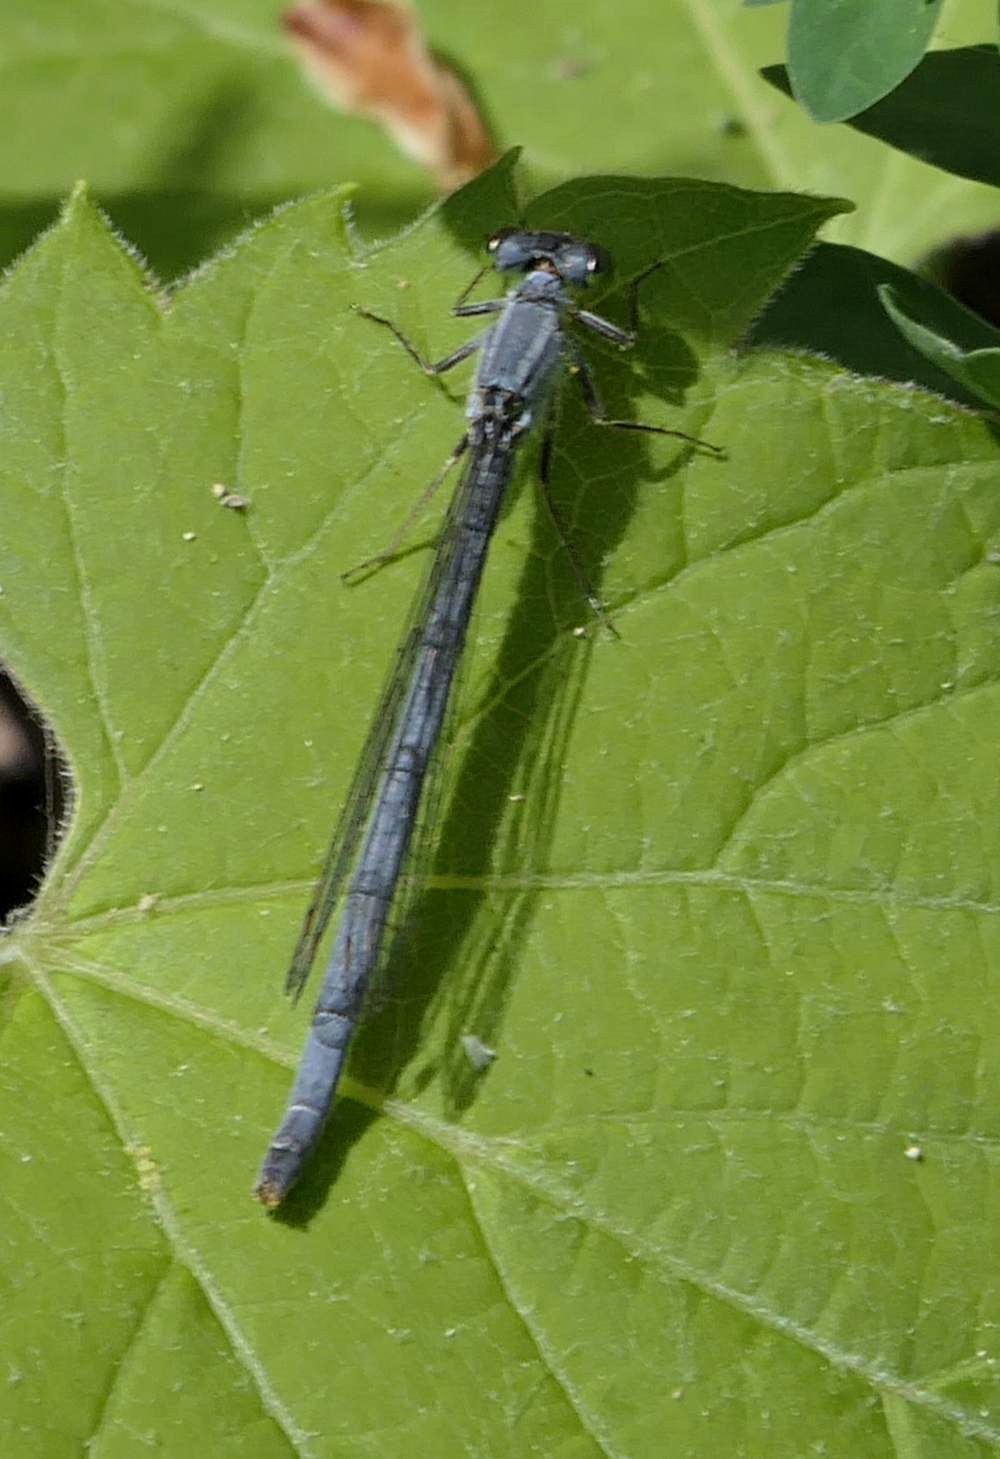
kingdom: Animalia
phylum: Arthropoda
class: Insecta
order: Odonata
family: Coenagrionidae
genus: Ischnura
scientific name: Ischnura verticalis
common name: Eastern forktail
